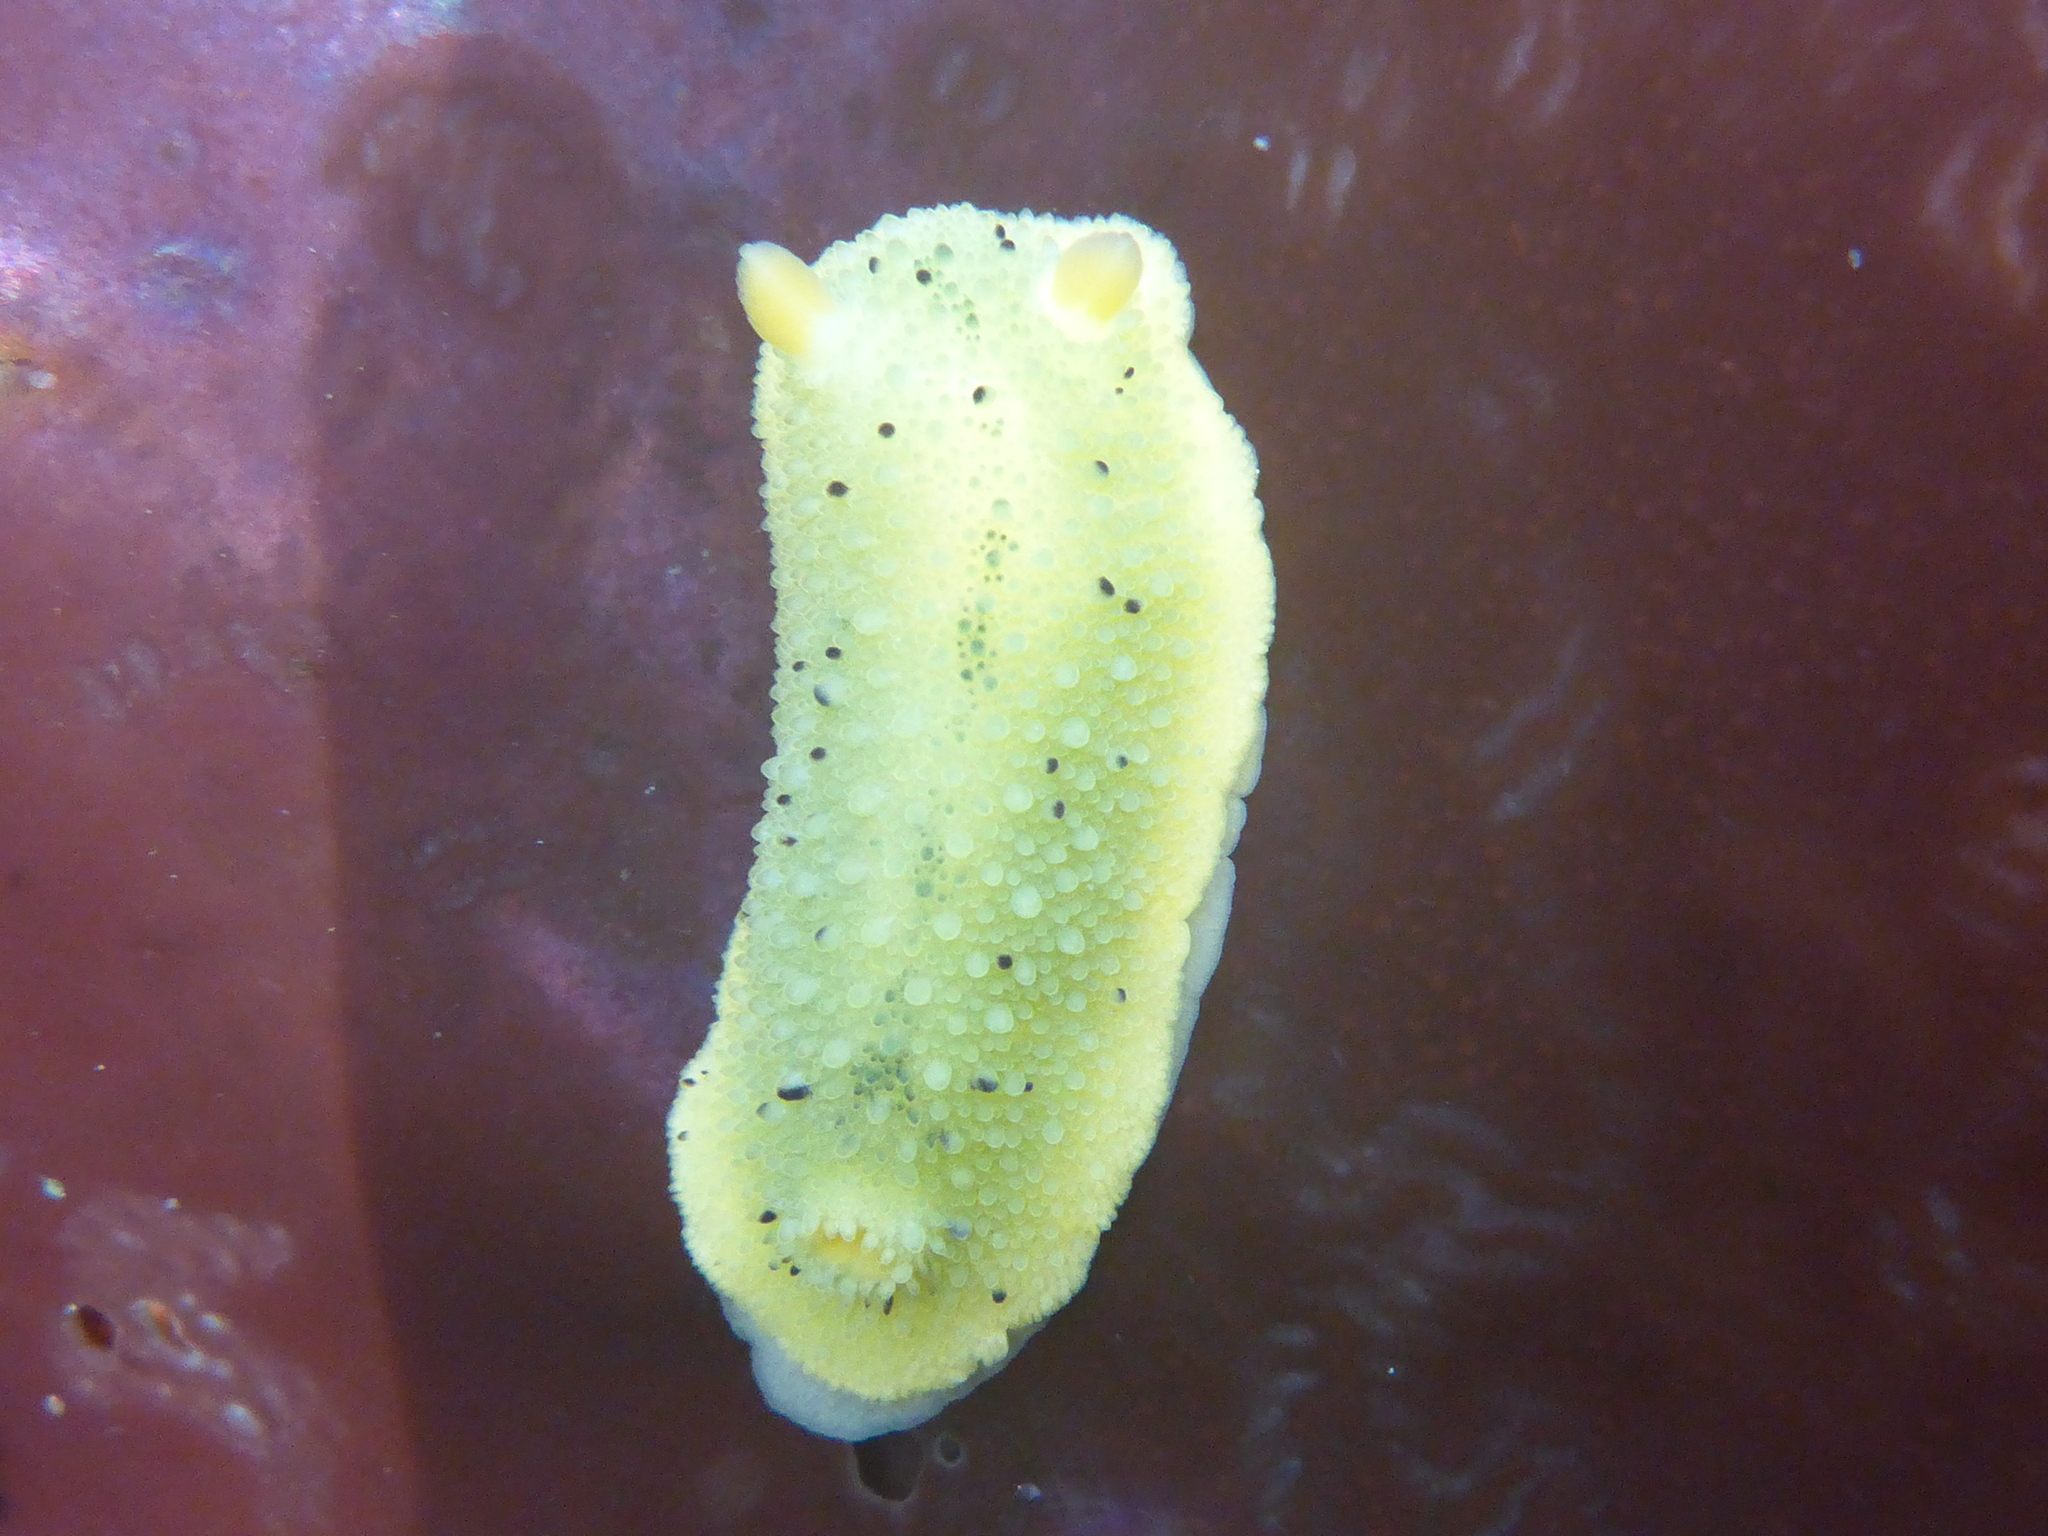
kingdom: Animalia
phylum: Mollusca
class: Gastropoda
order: Nudibranchia
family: Dorididae
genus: Doris
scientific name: Doris montereyensis
